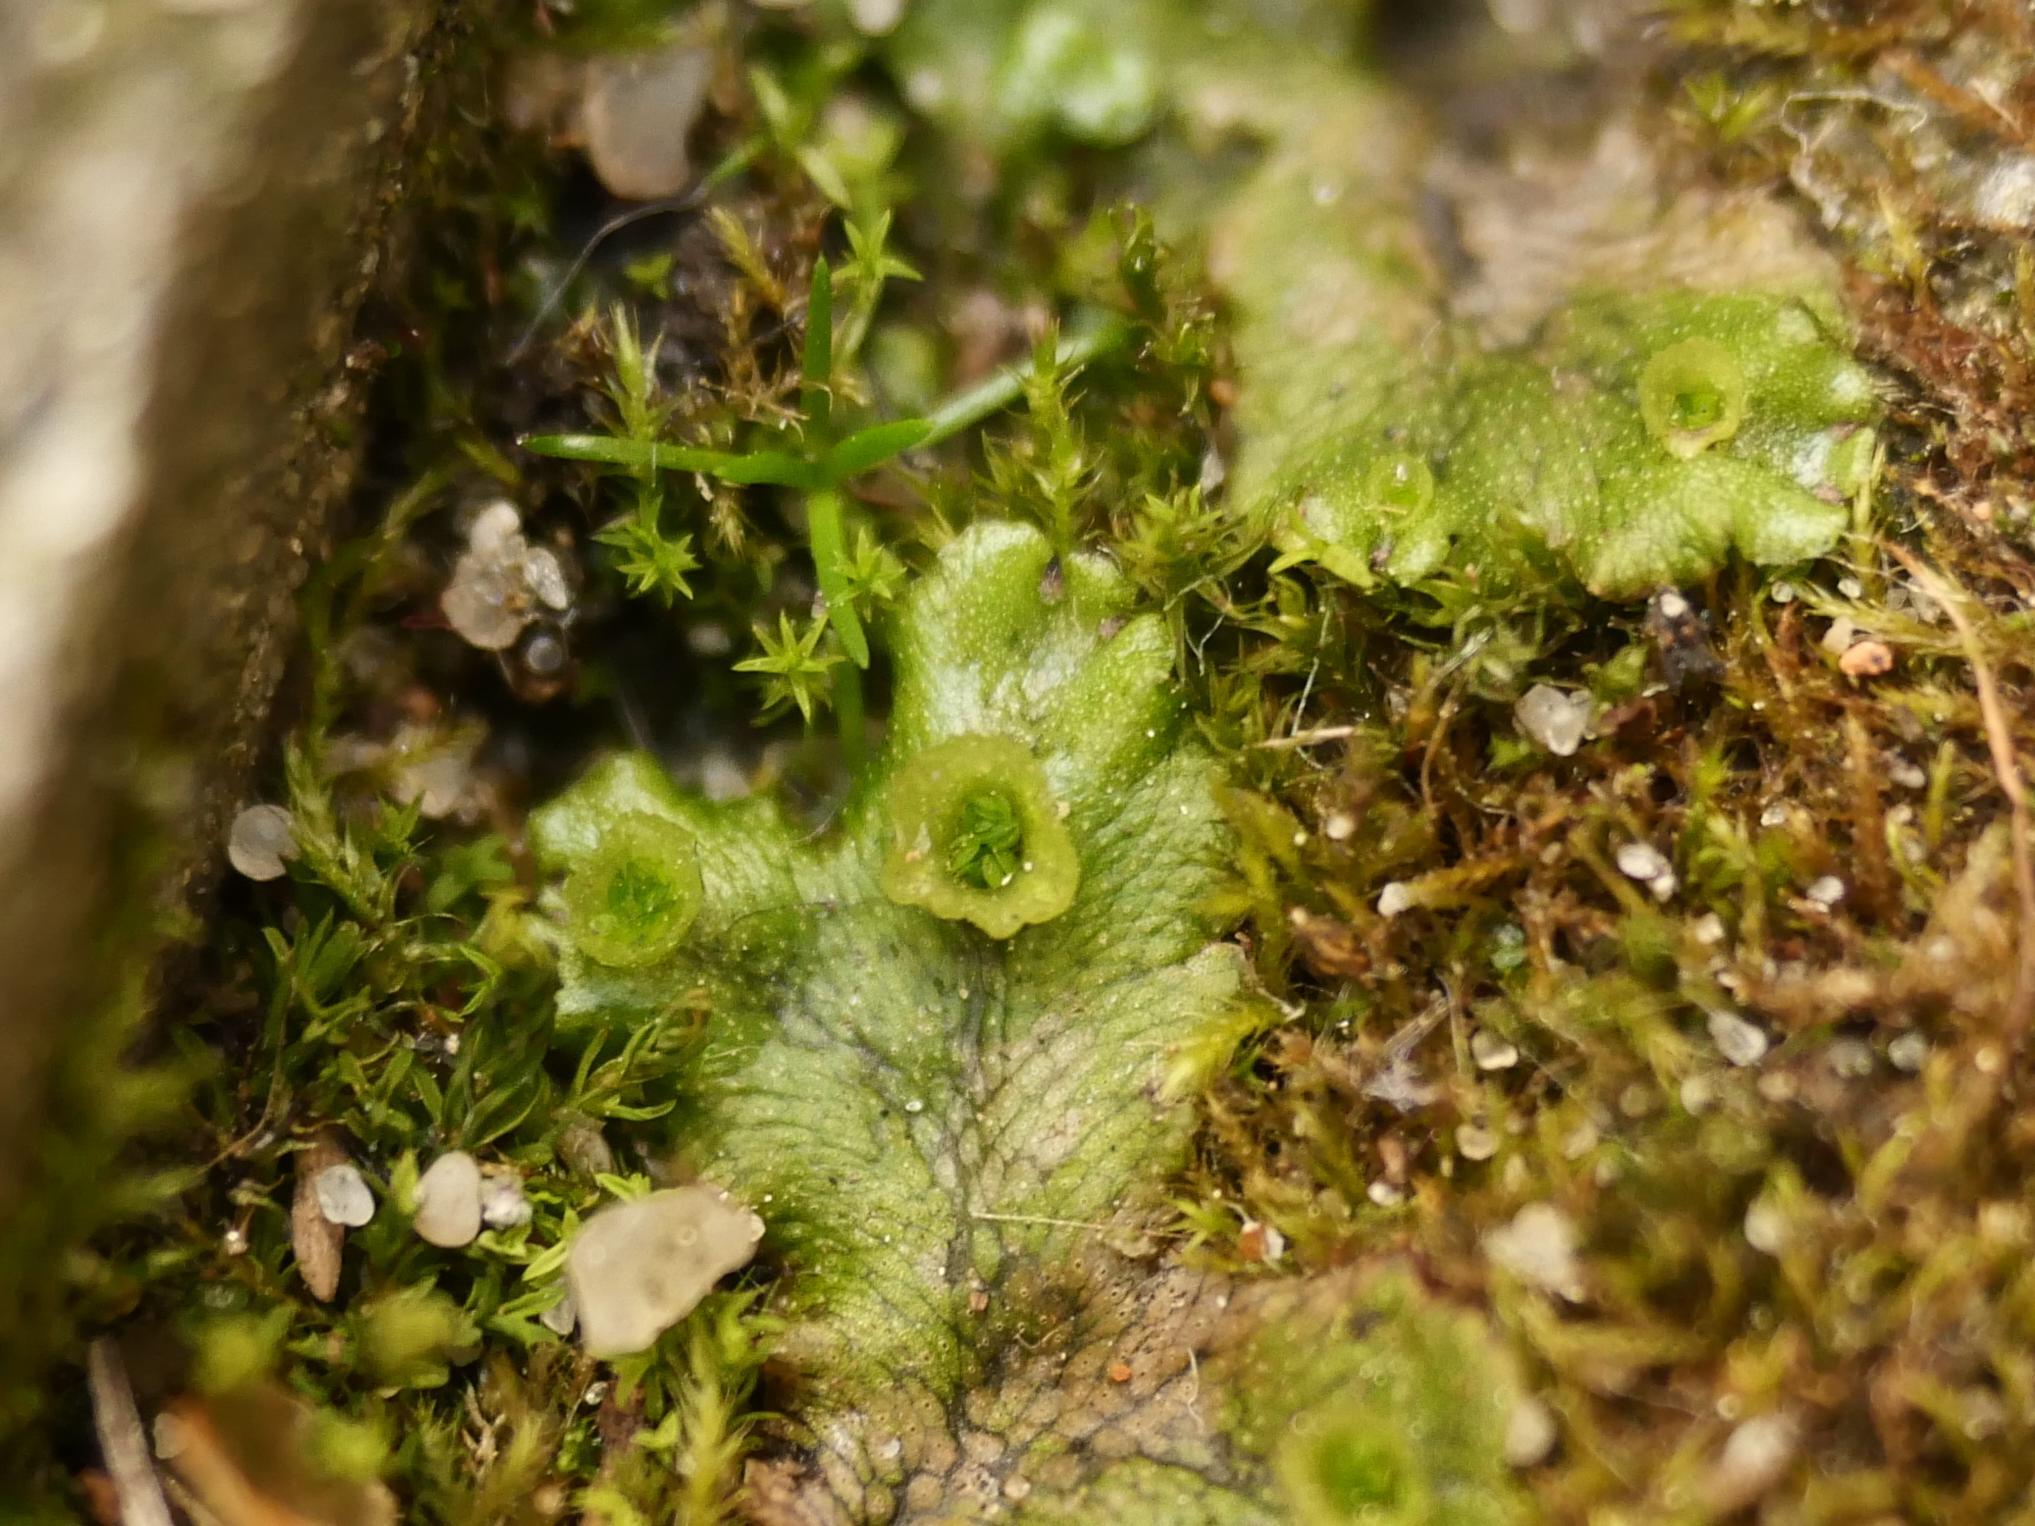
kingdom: Plantae
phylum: Marchantiophyta
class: Marchantiopsida
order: Marchantiales
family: Marchantiaceae
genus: Marchantia
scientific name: Marchantia polymorpha
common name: Common liverwort
